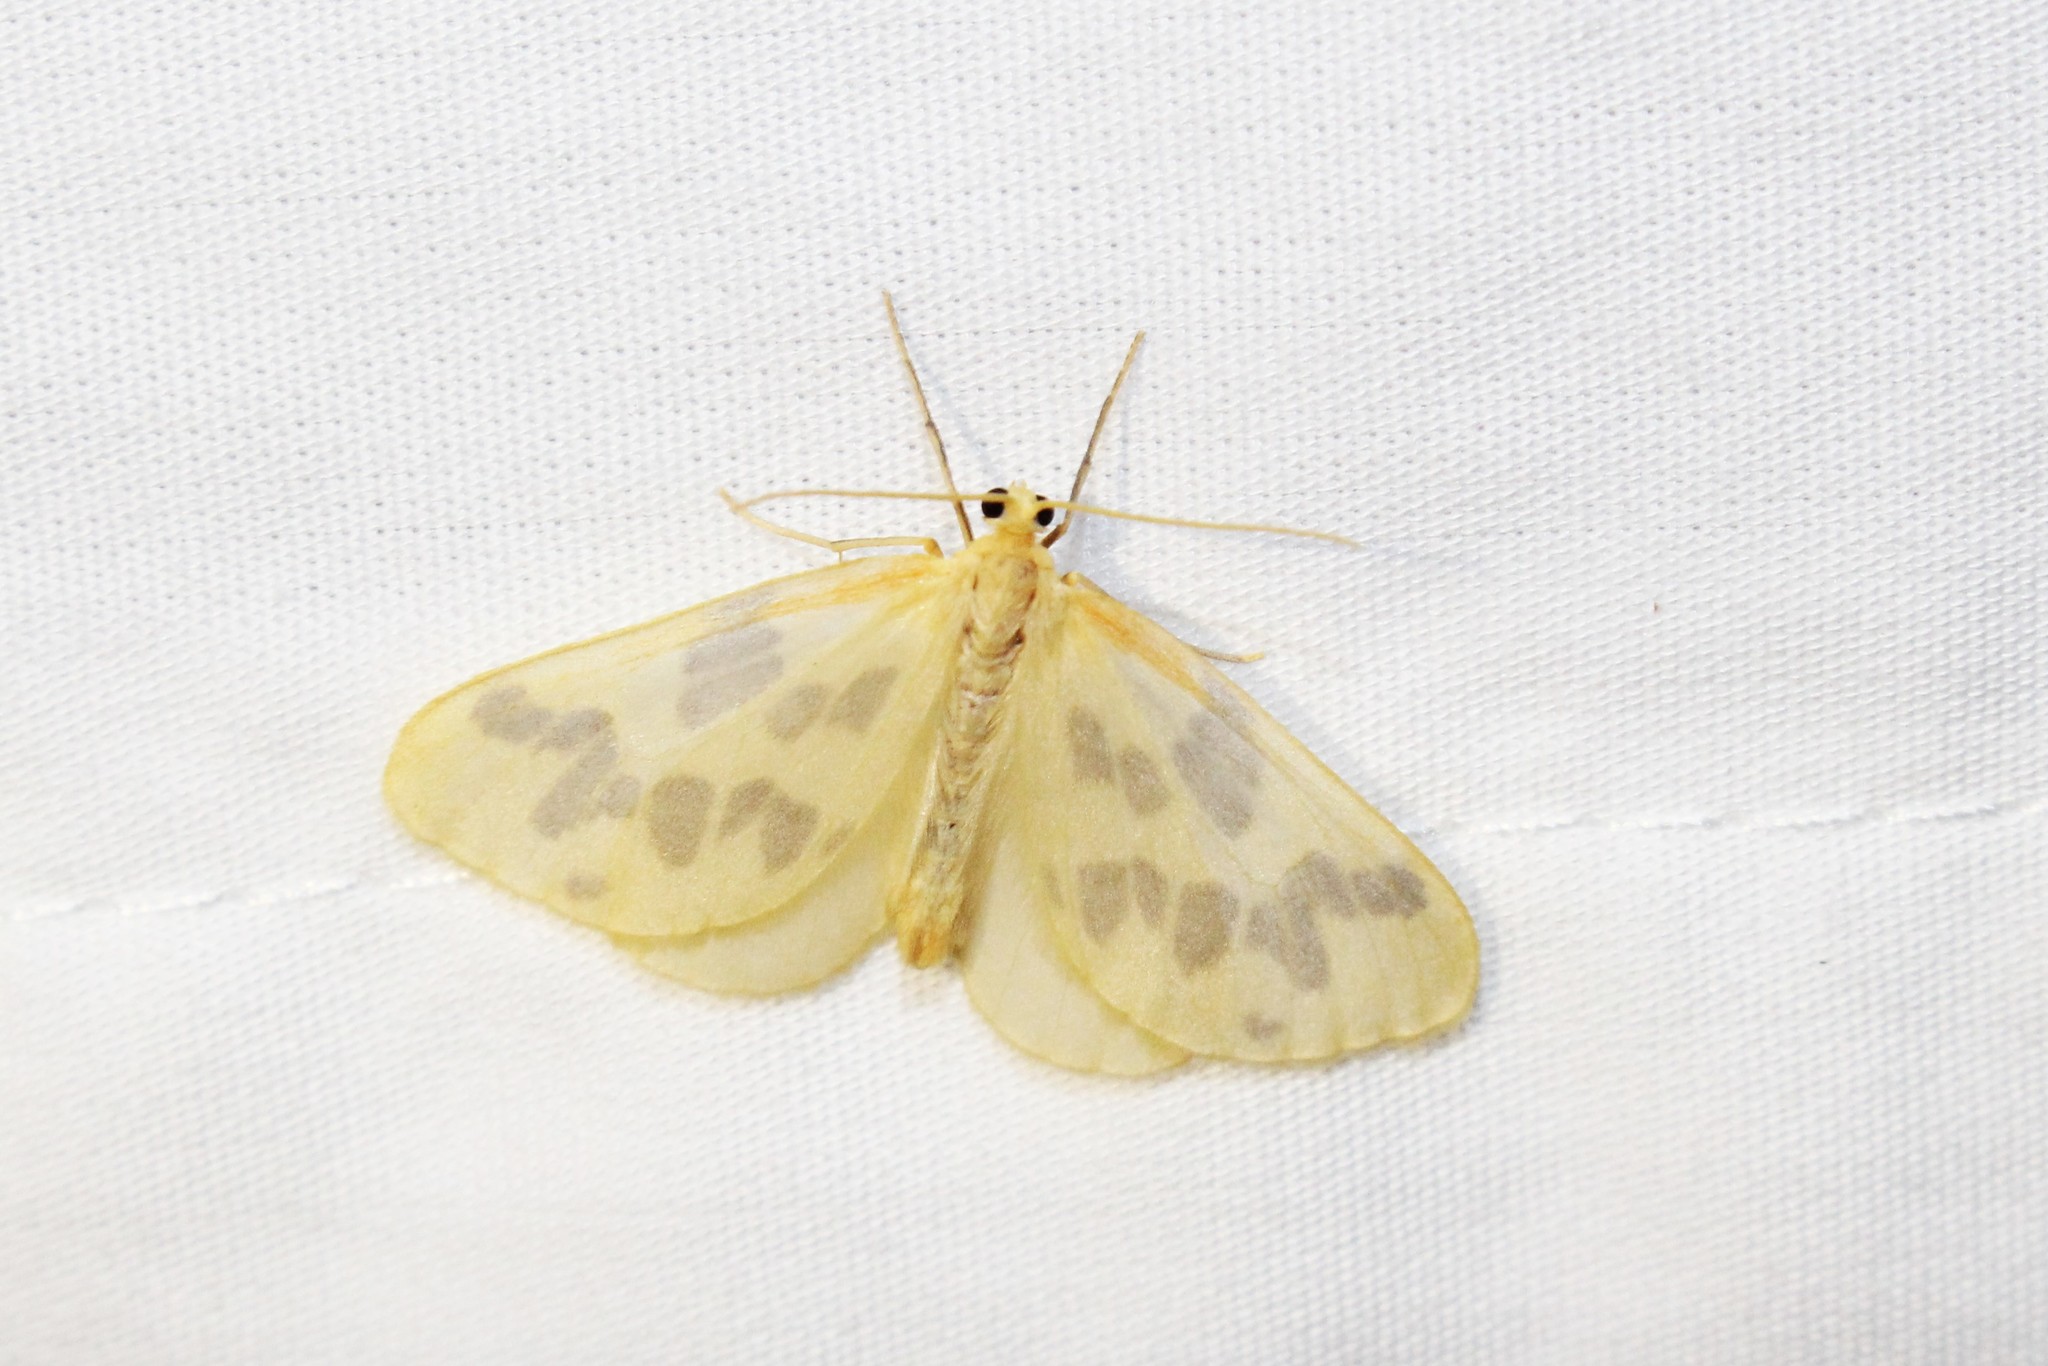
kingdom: Animalia
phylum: Arthropoda
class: Insecta
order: Lepidoptera
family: Geometridae
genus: Eubaphe
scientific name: Eubaphe mendica
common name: Beggar
